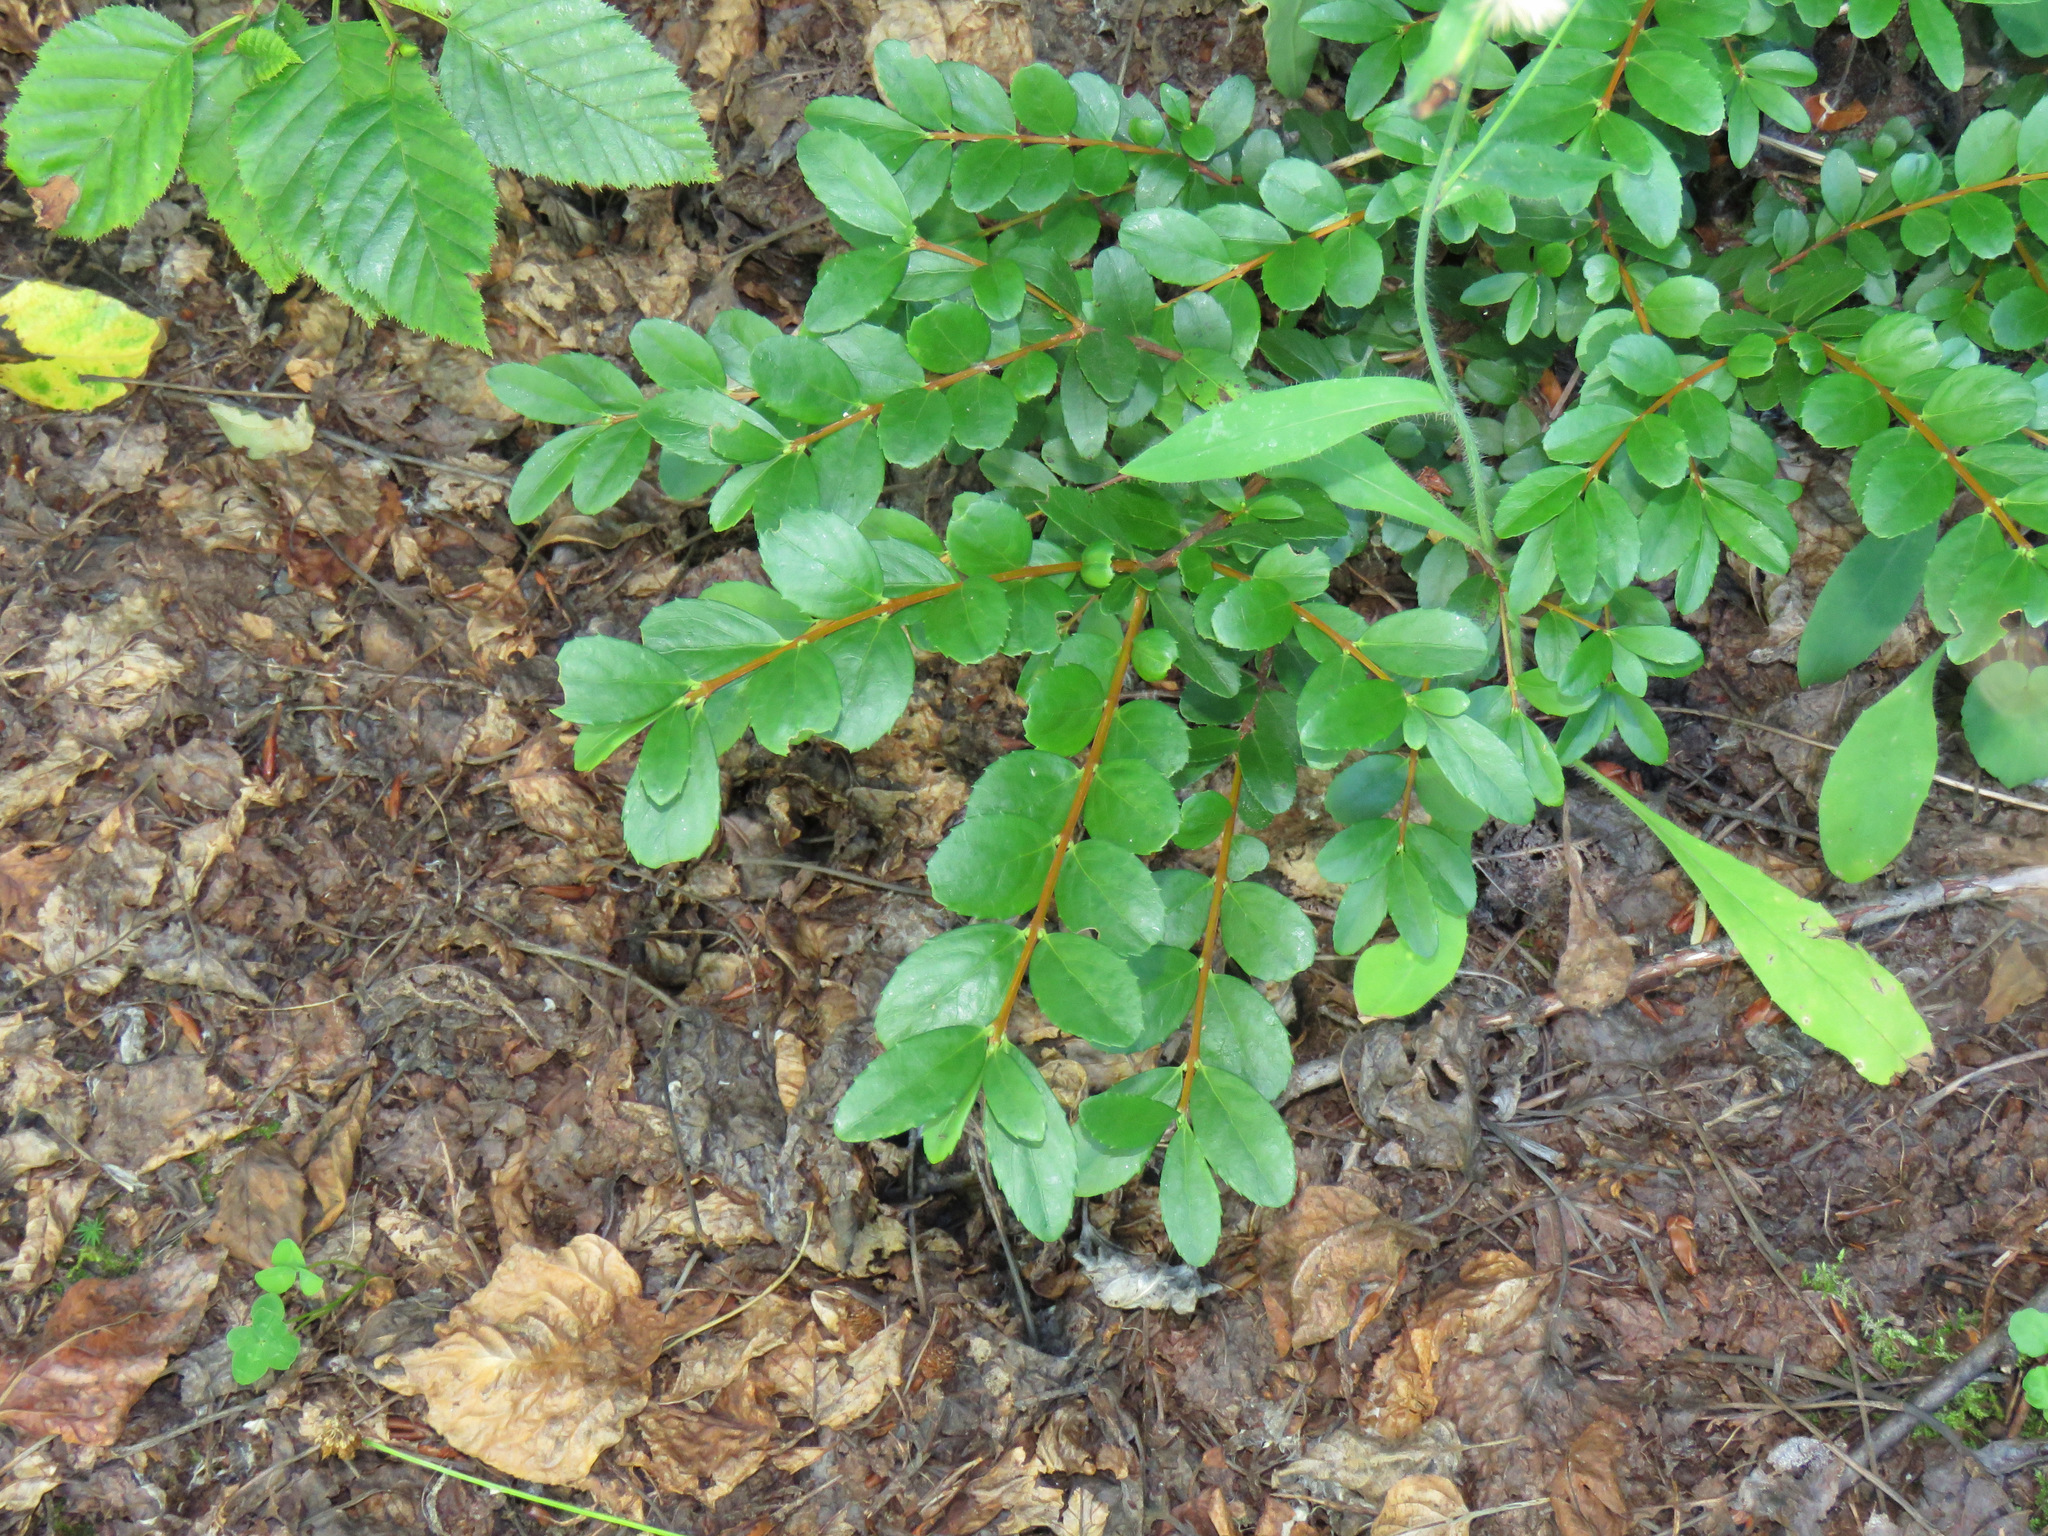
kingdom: Plantae
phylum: Tracheophyta
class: Magnoliopsida
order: Celastrales
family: Celastraceae
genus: Paxistima
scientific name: Paxistima myrsinites
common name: Mountain-lover
